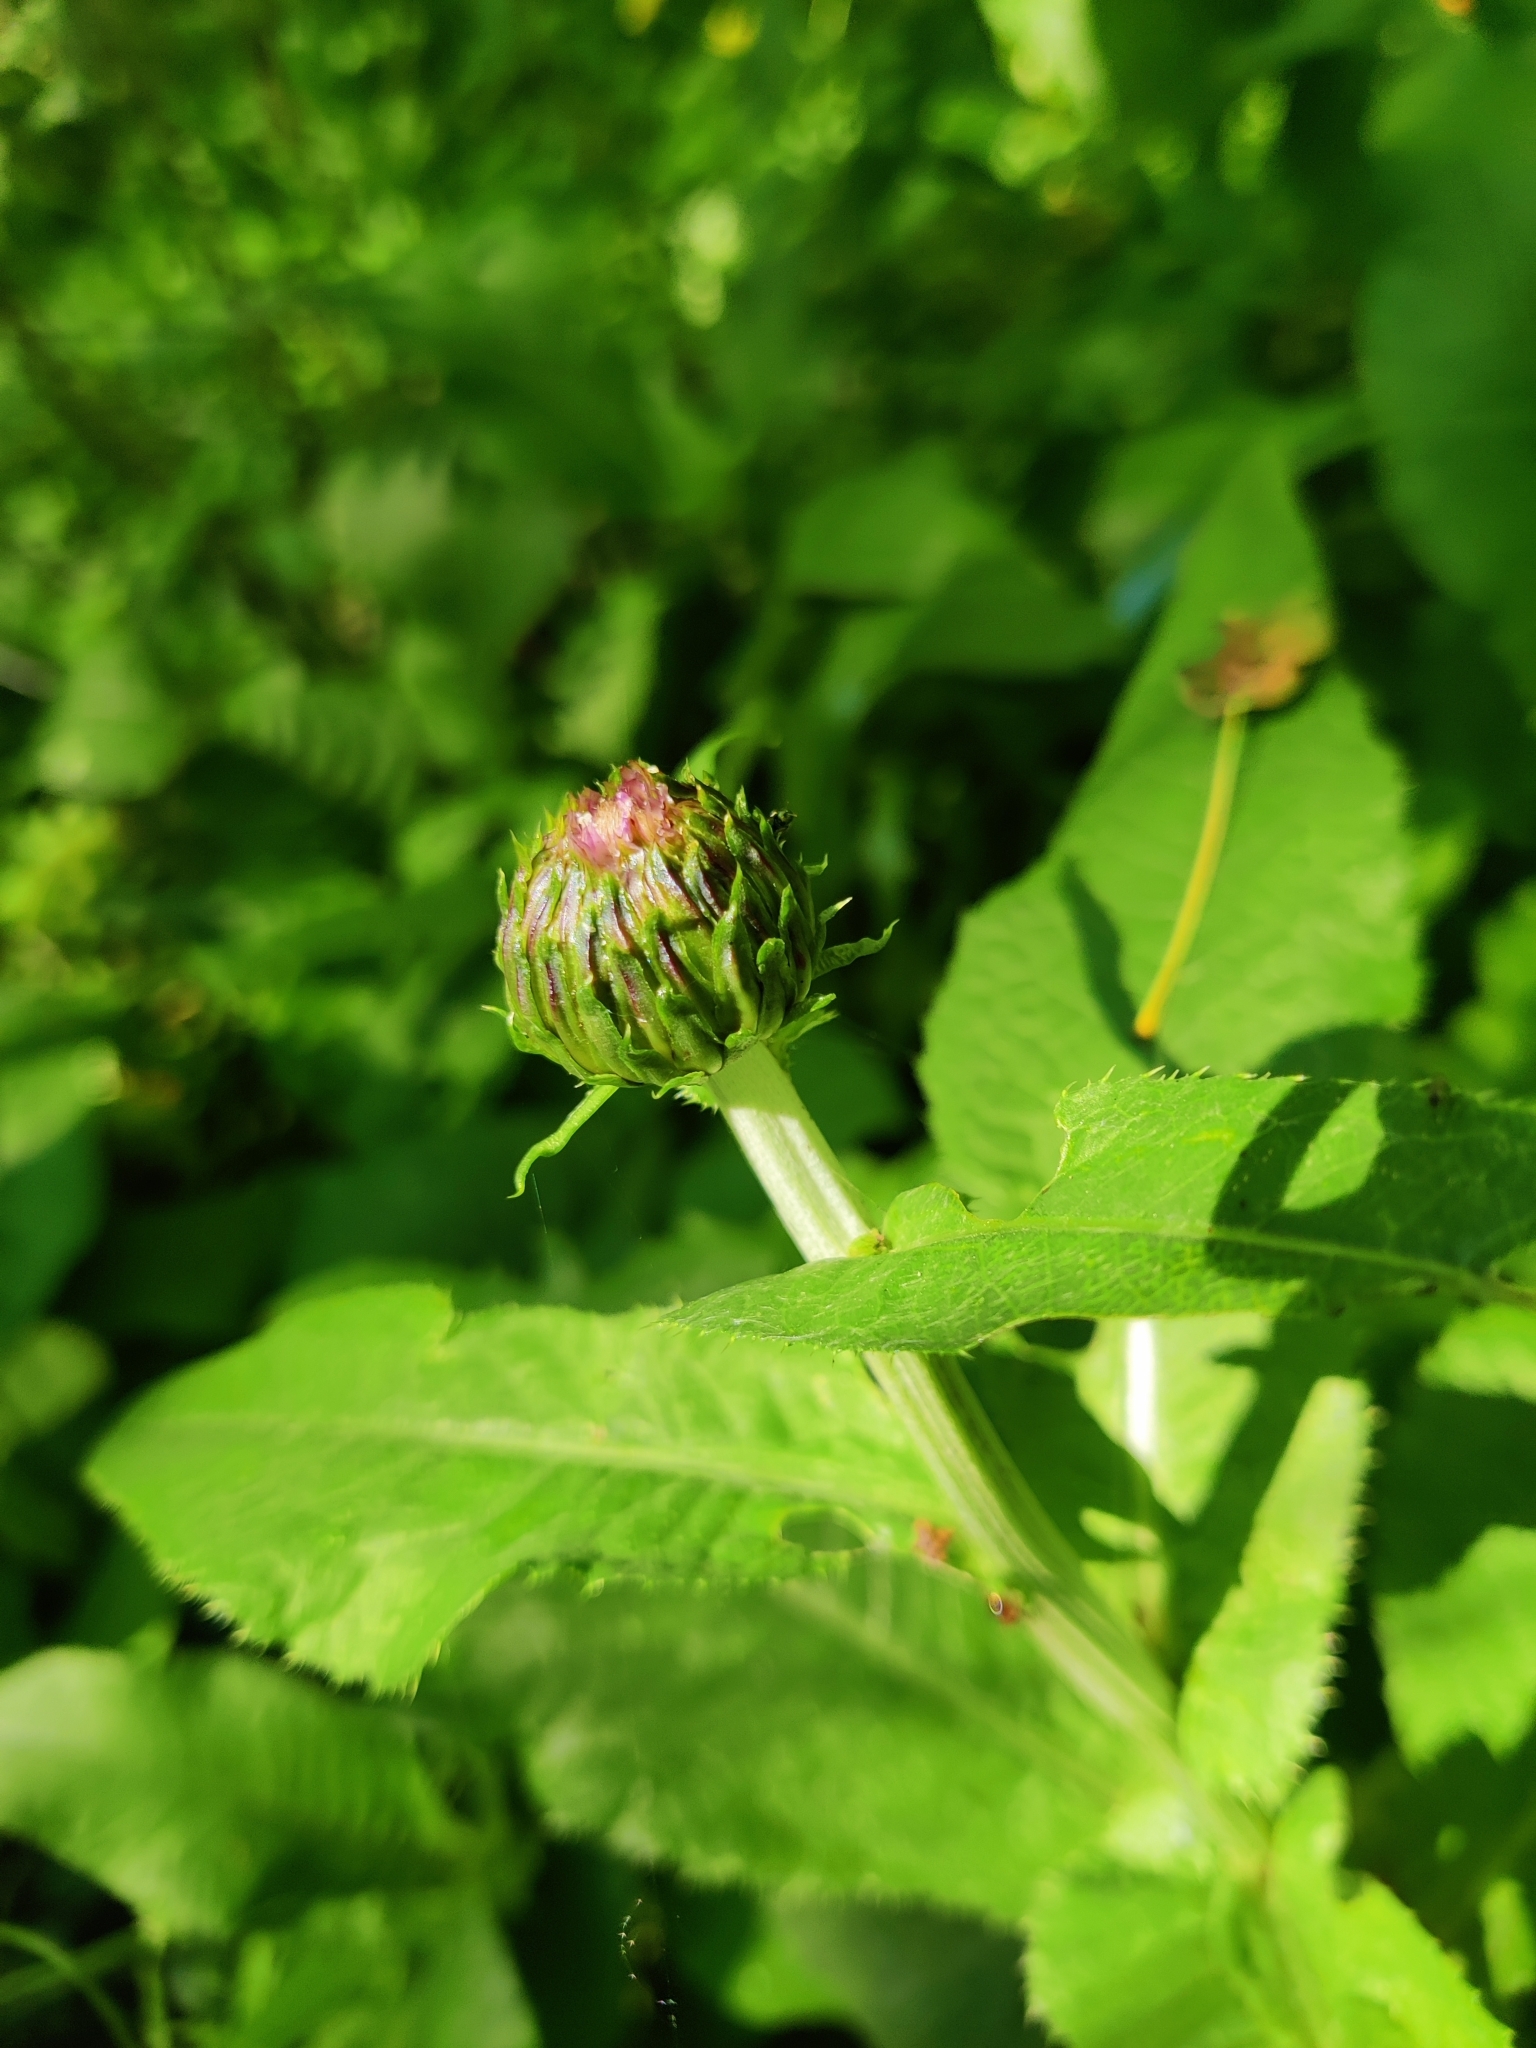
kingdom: Plantae
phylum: Tracheophyta
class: Magnoliopsida
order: Asterales
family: Asteraceae
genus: Cirsium
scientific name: Cirsium heterophyllum
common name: Melancholy thistle
